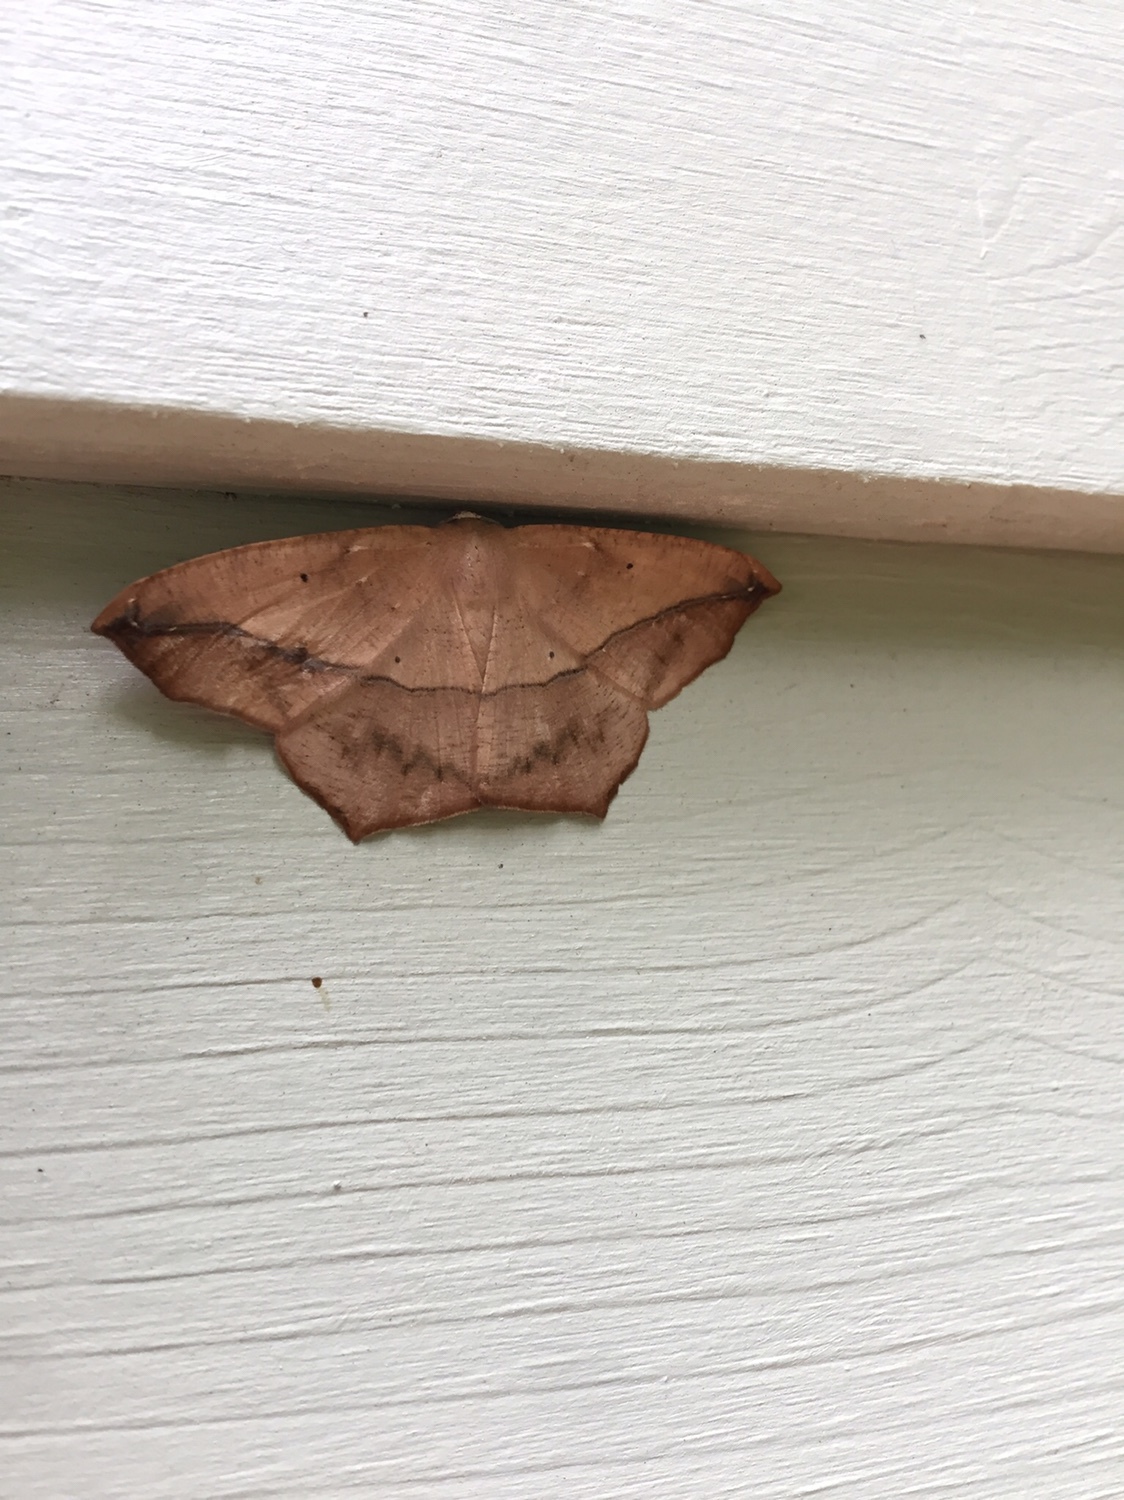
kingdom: Animalia
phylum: Arthropoda
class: Insecta
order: Lepidoptera
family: Geometridae
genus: Prochoerodes
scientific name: Prochoerodes lineola
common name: Large maple spanworm
